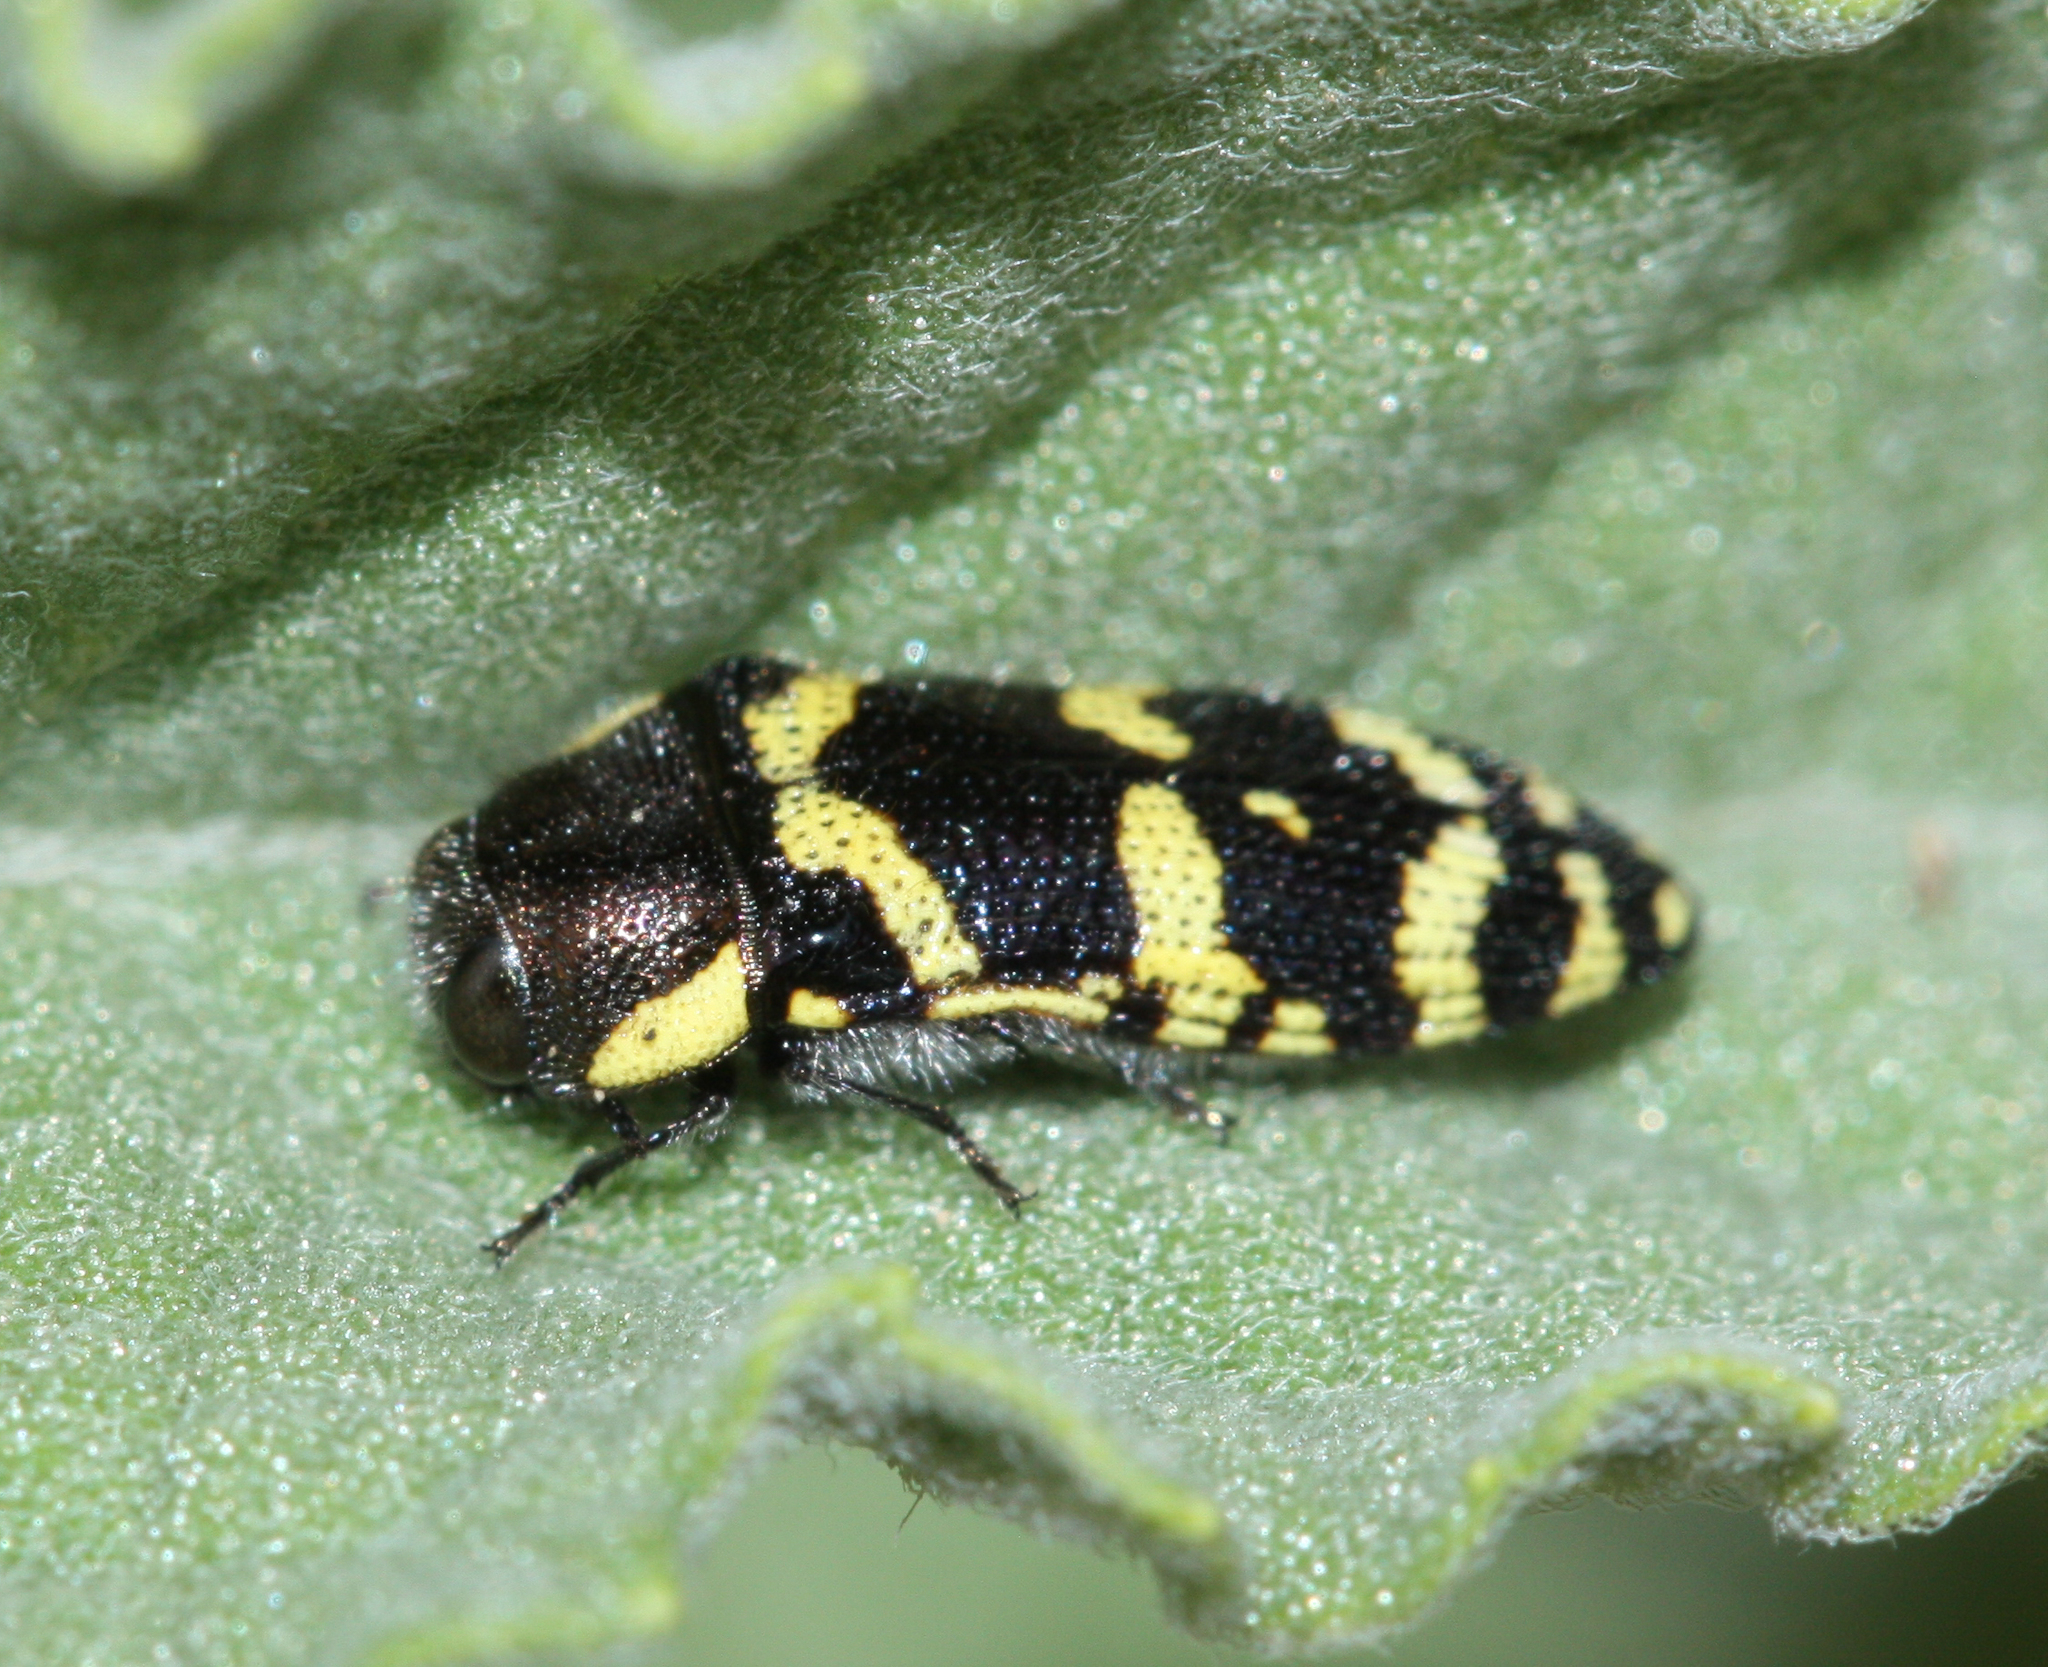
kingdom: Animalia
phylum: Arthropoda
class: Insecta
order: Coleoptera
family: Buprestidae
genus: Acmaeodera
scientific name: Acmaeodera convicta
